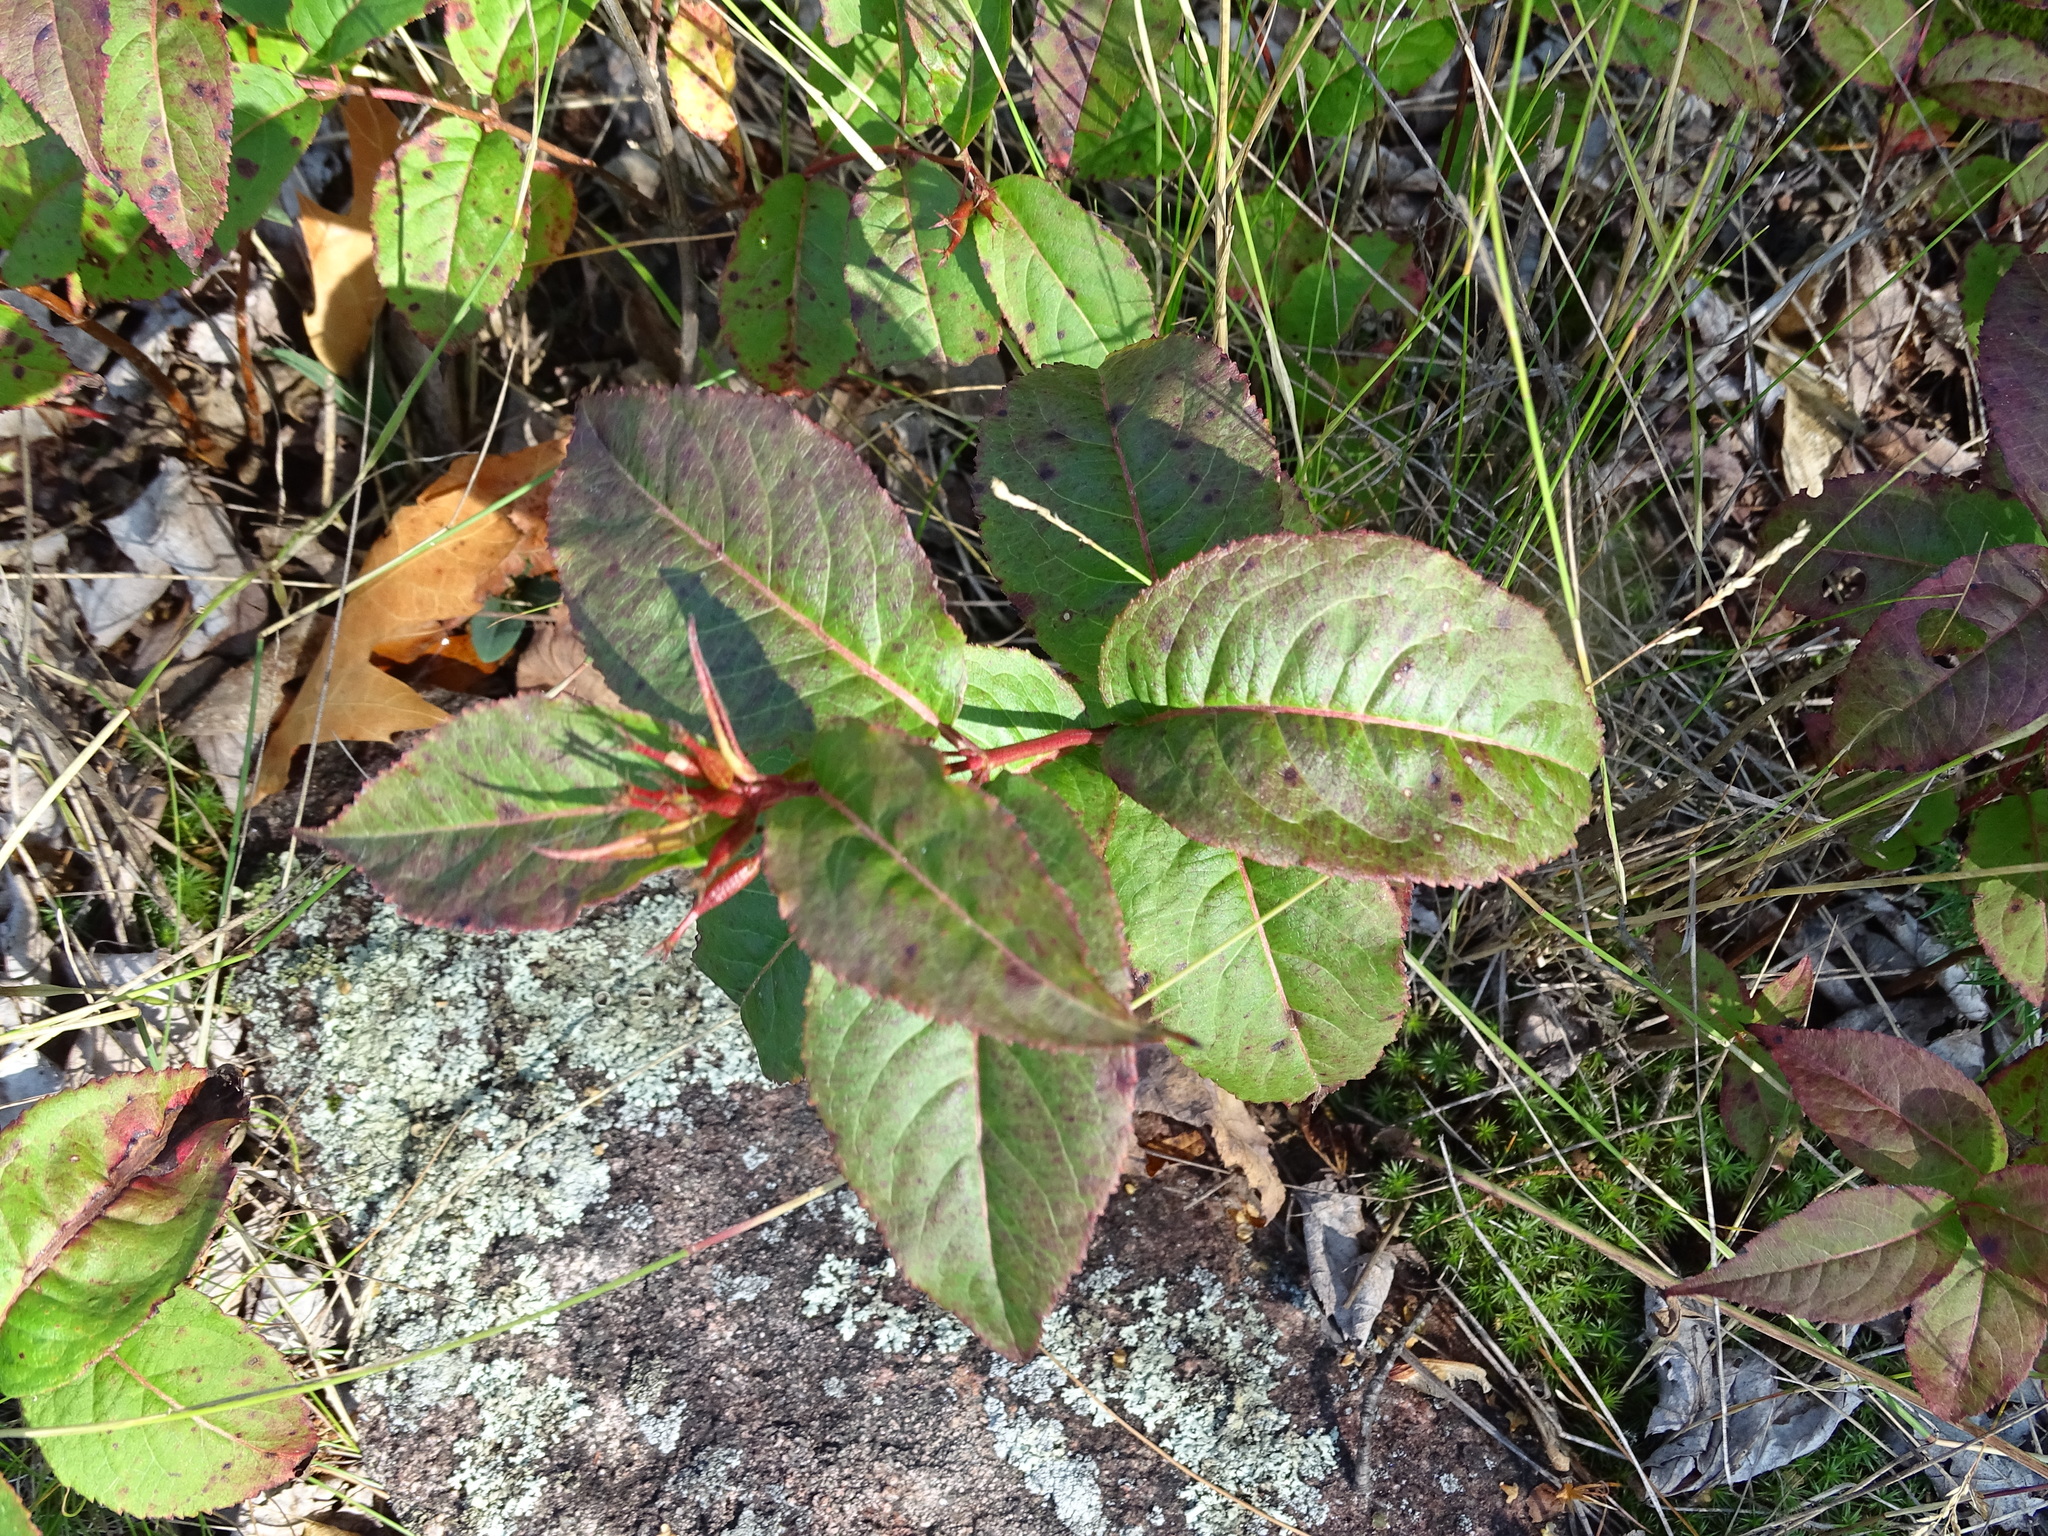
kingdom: Plantae
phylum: Tracheophyta
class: Magnoliopsida
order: Dipsacales
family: Caprifoliaceae
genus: Diervilla
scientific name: Diervilla lonicera
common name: Bush-honeysuckle
